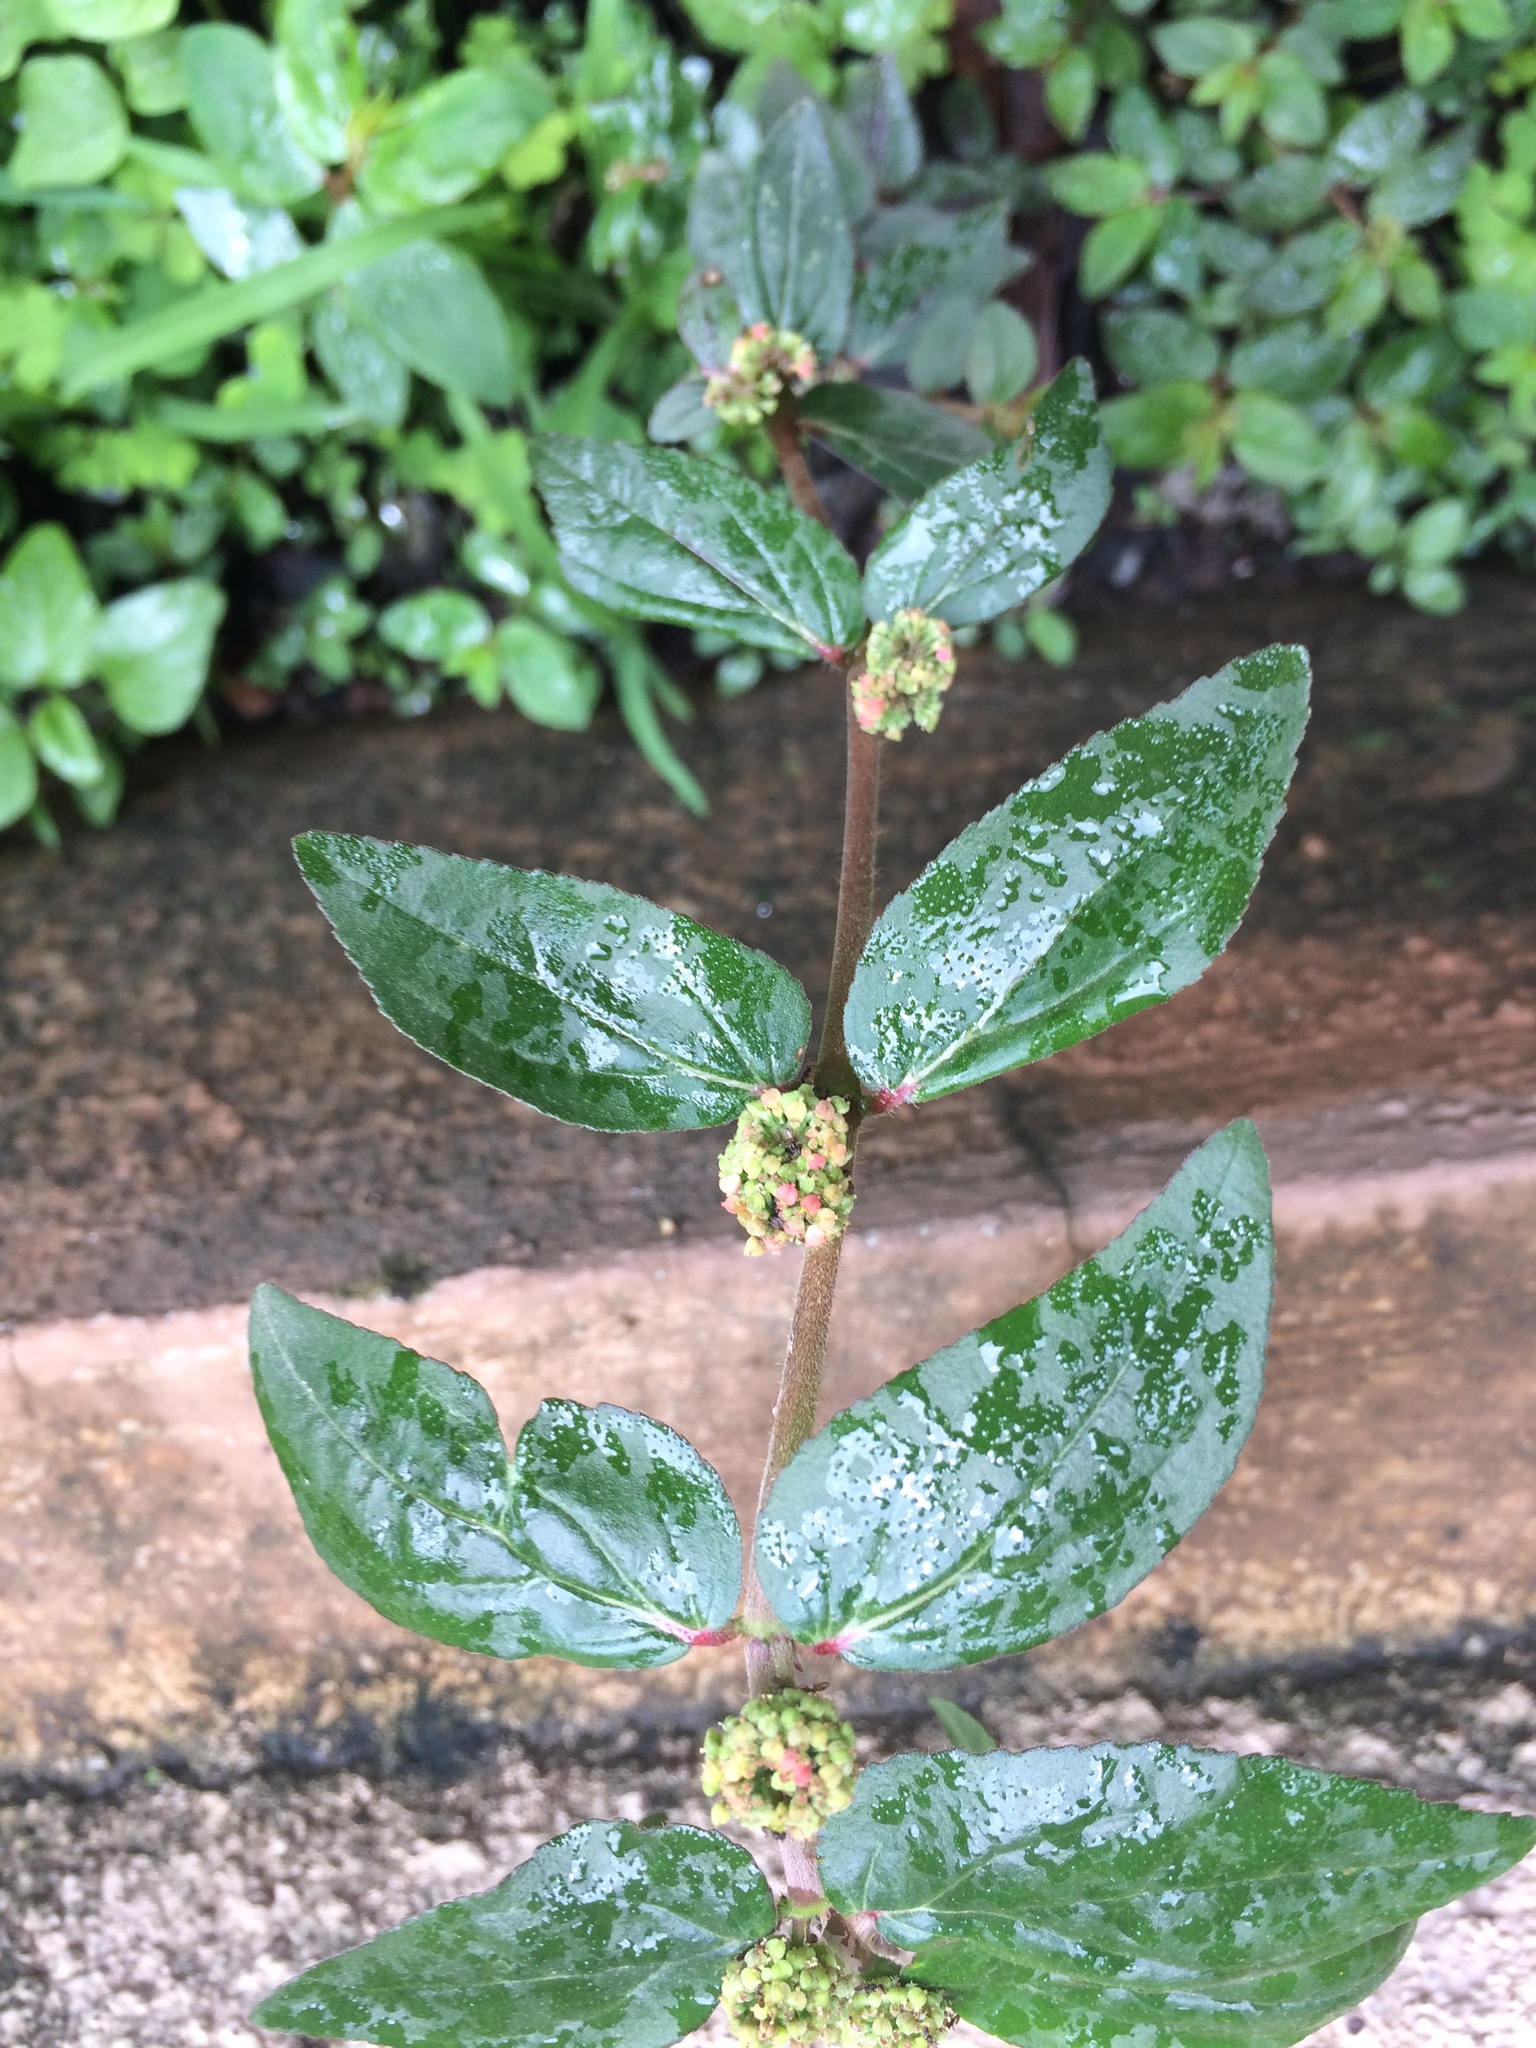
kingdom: Plantae
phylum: Tracheophyta
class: Magnoliopsida
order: Malpighiales
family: Euphorbiaceae
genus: Euphorbia
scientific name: Euphorbia hirta
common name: Pillpod sandmat
